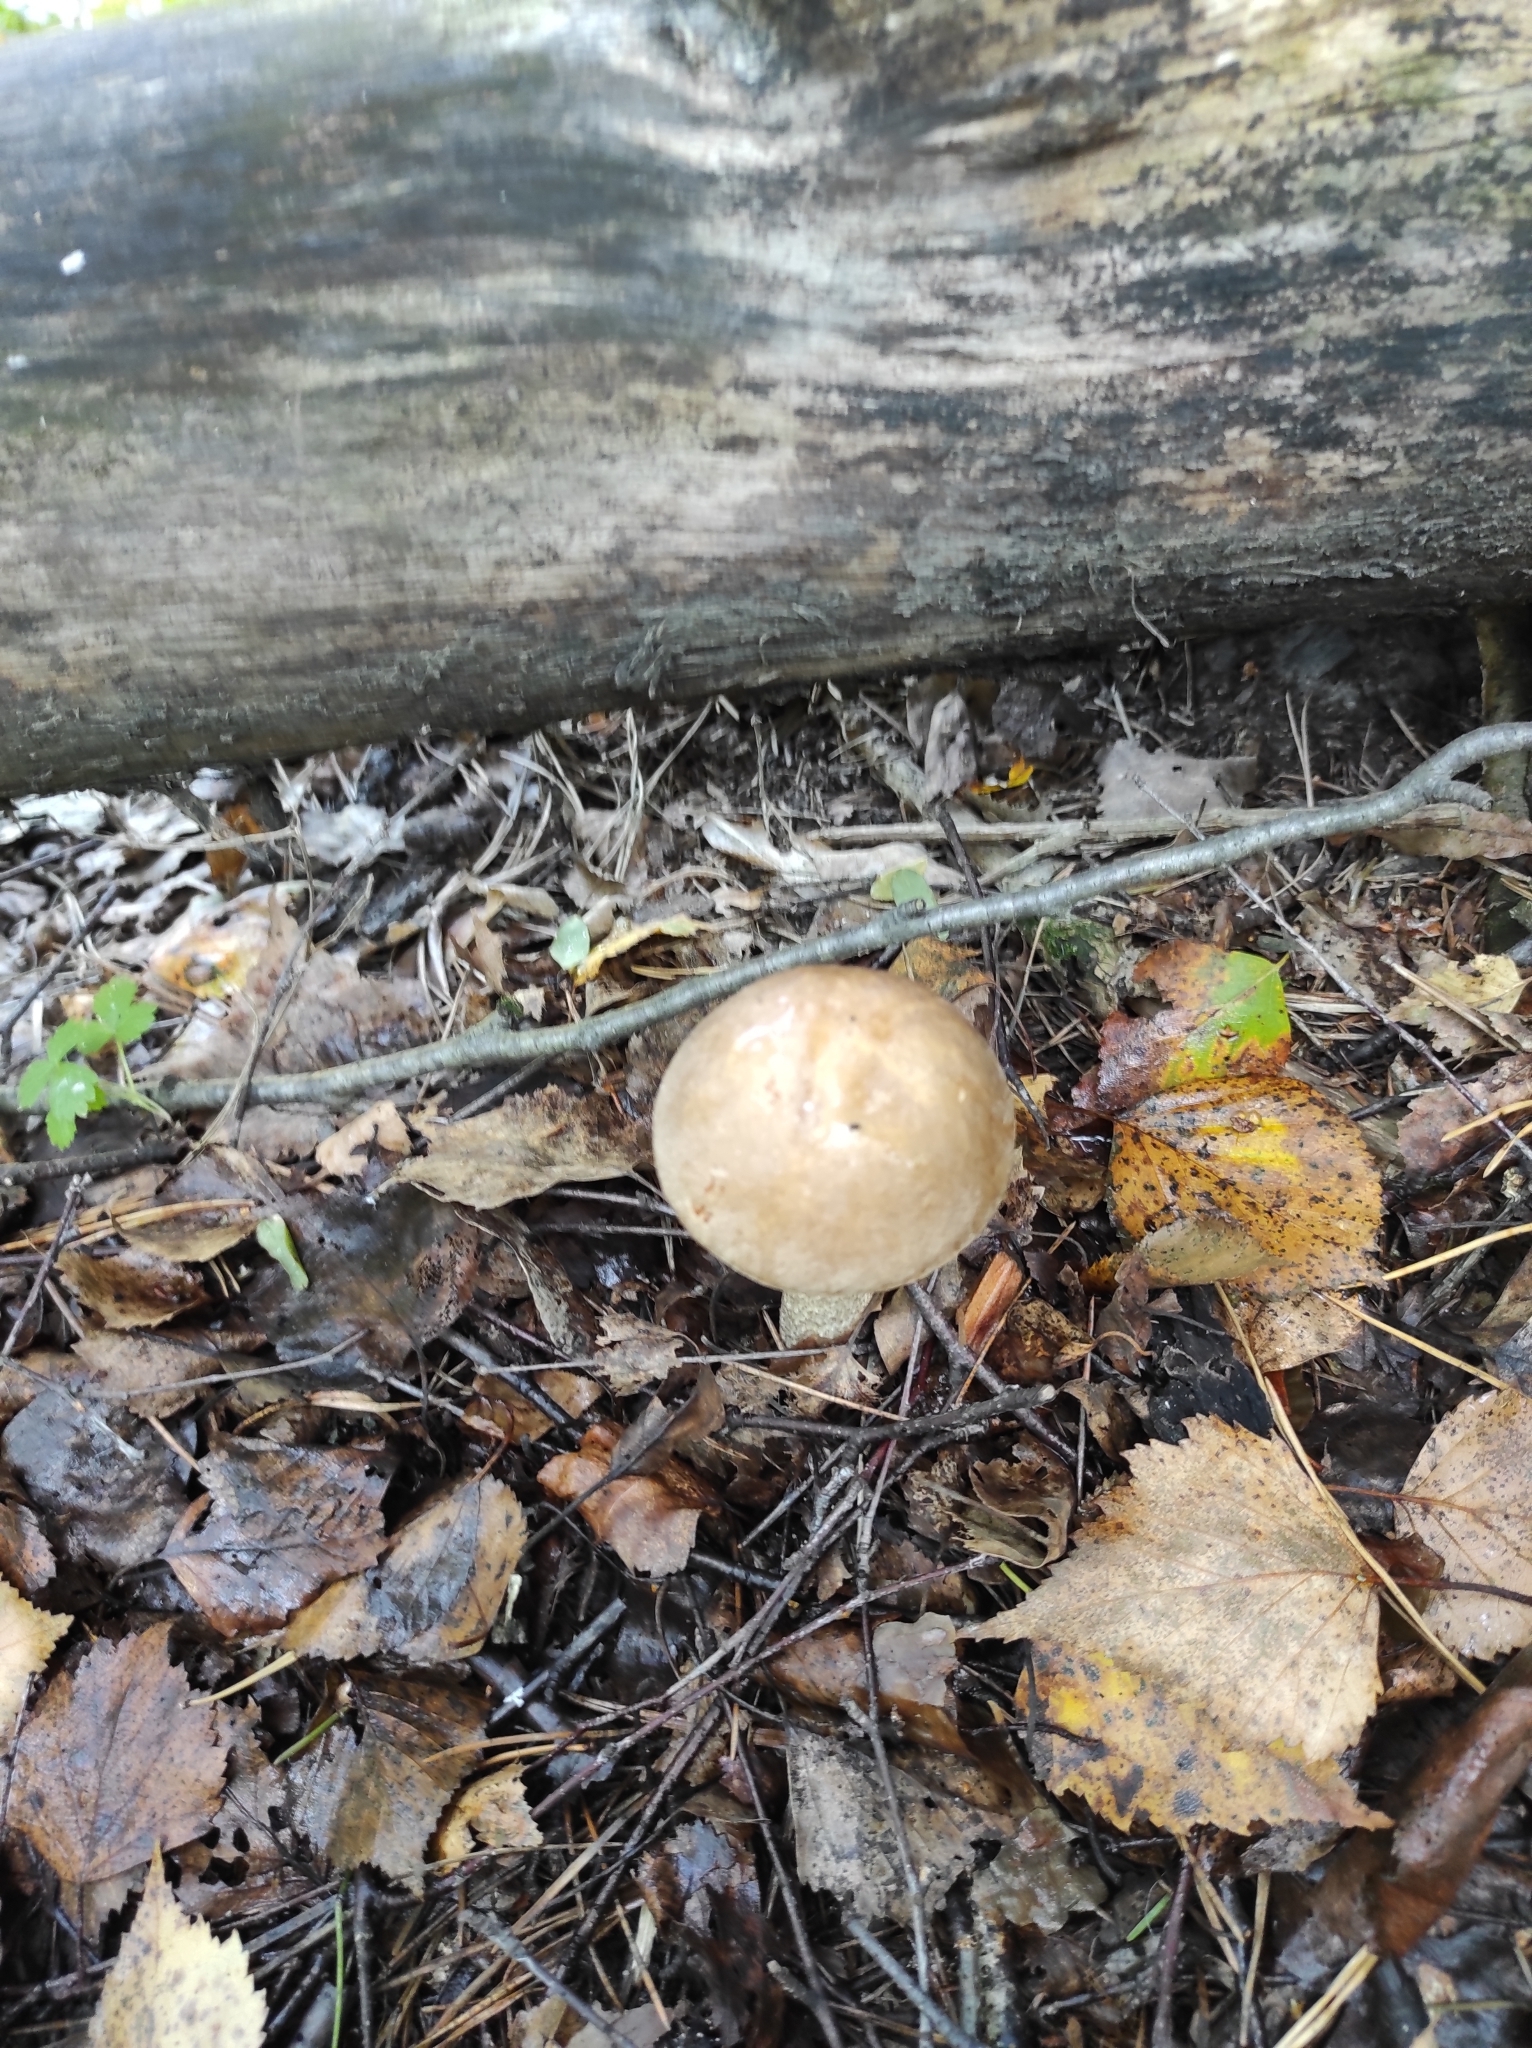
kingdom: Fungi
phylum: Basidiomycota
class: Agaricomycetes
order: Boletales
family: Boletaceae
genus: Leccinum
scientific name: Leccinum scabrum
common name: Blushing bolete
